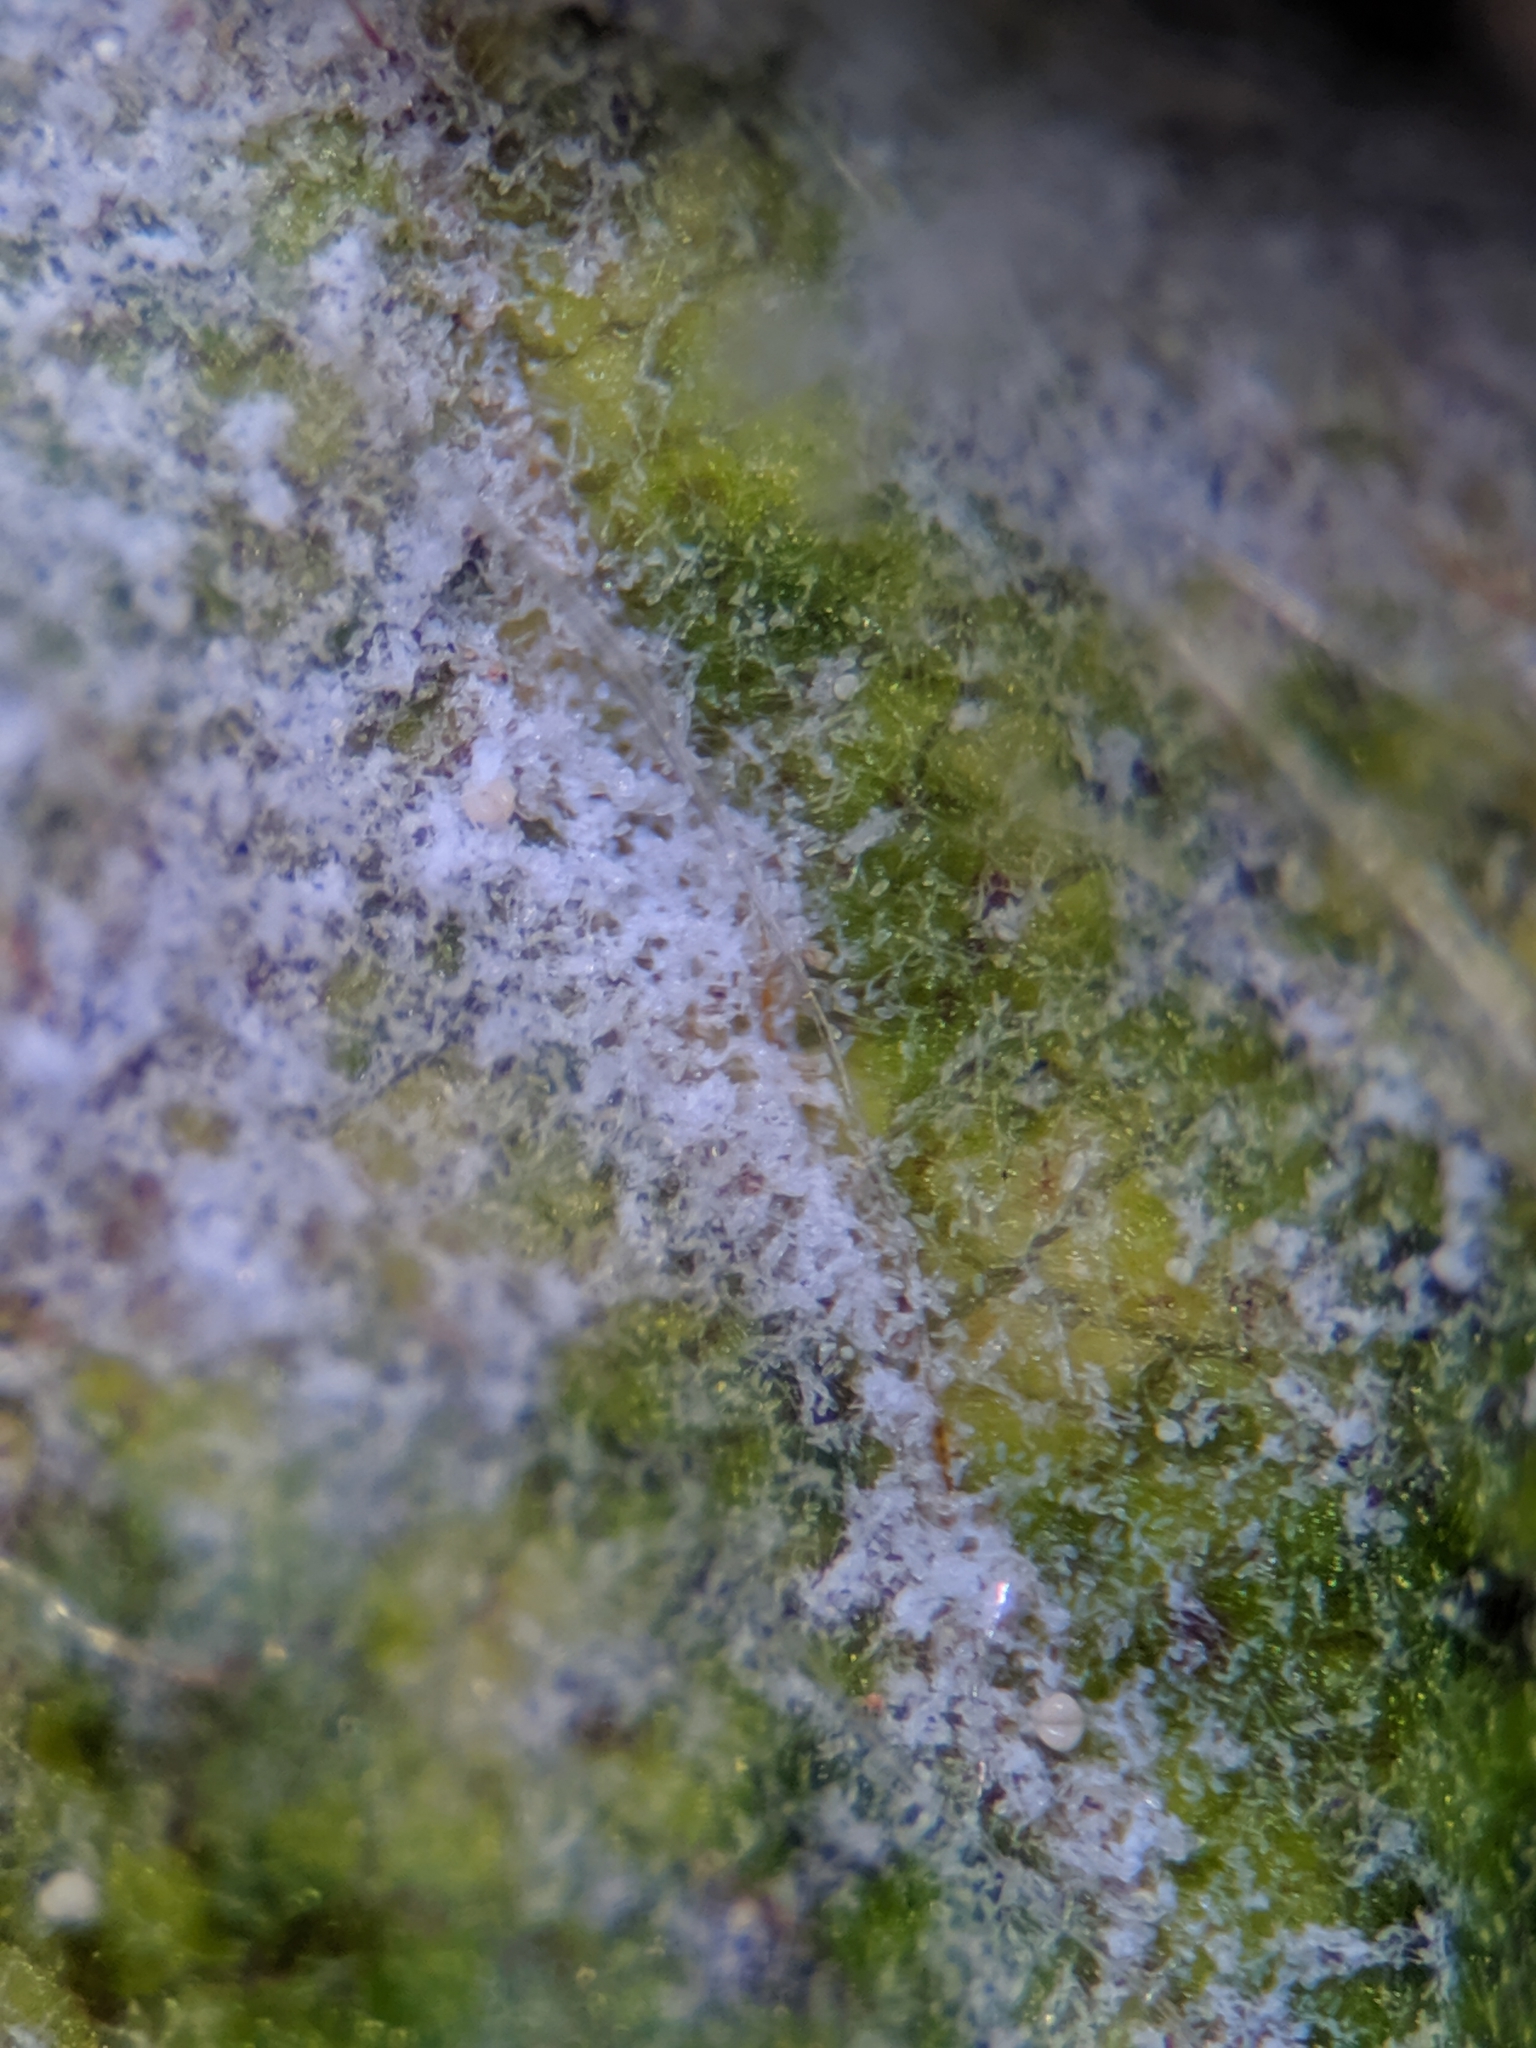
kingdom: Fungi
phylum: Ascomycota
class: Leotiomycetes
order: Helotiales
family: Erysiphaceae
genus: Erysiphe
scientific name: Erysiphe arcuata
